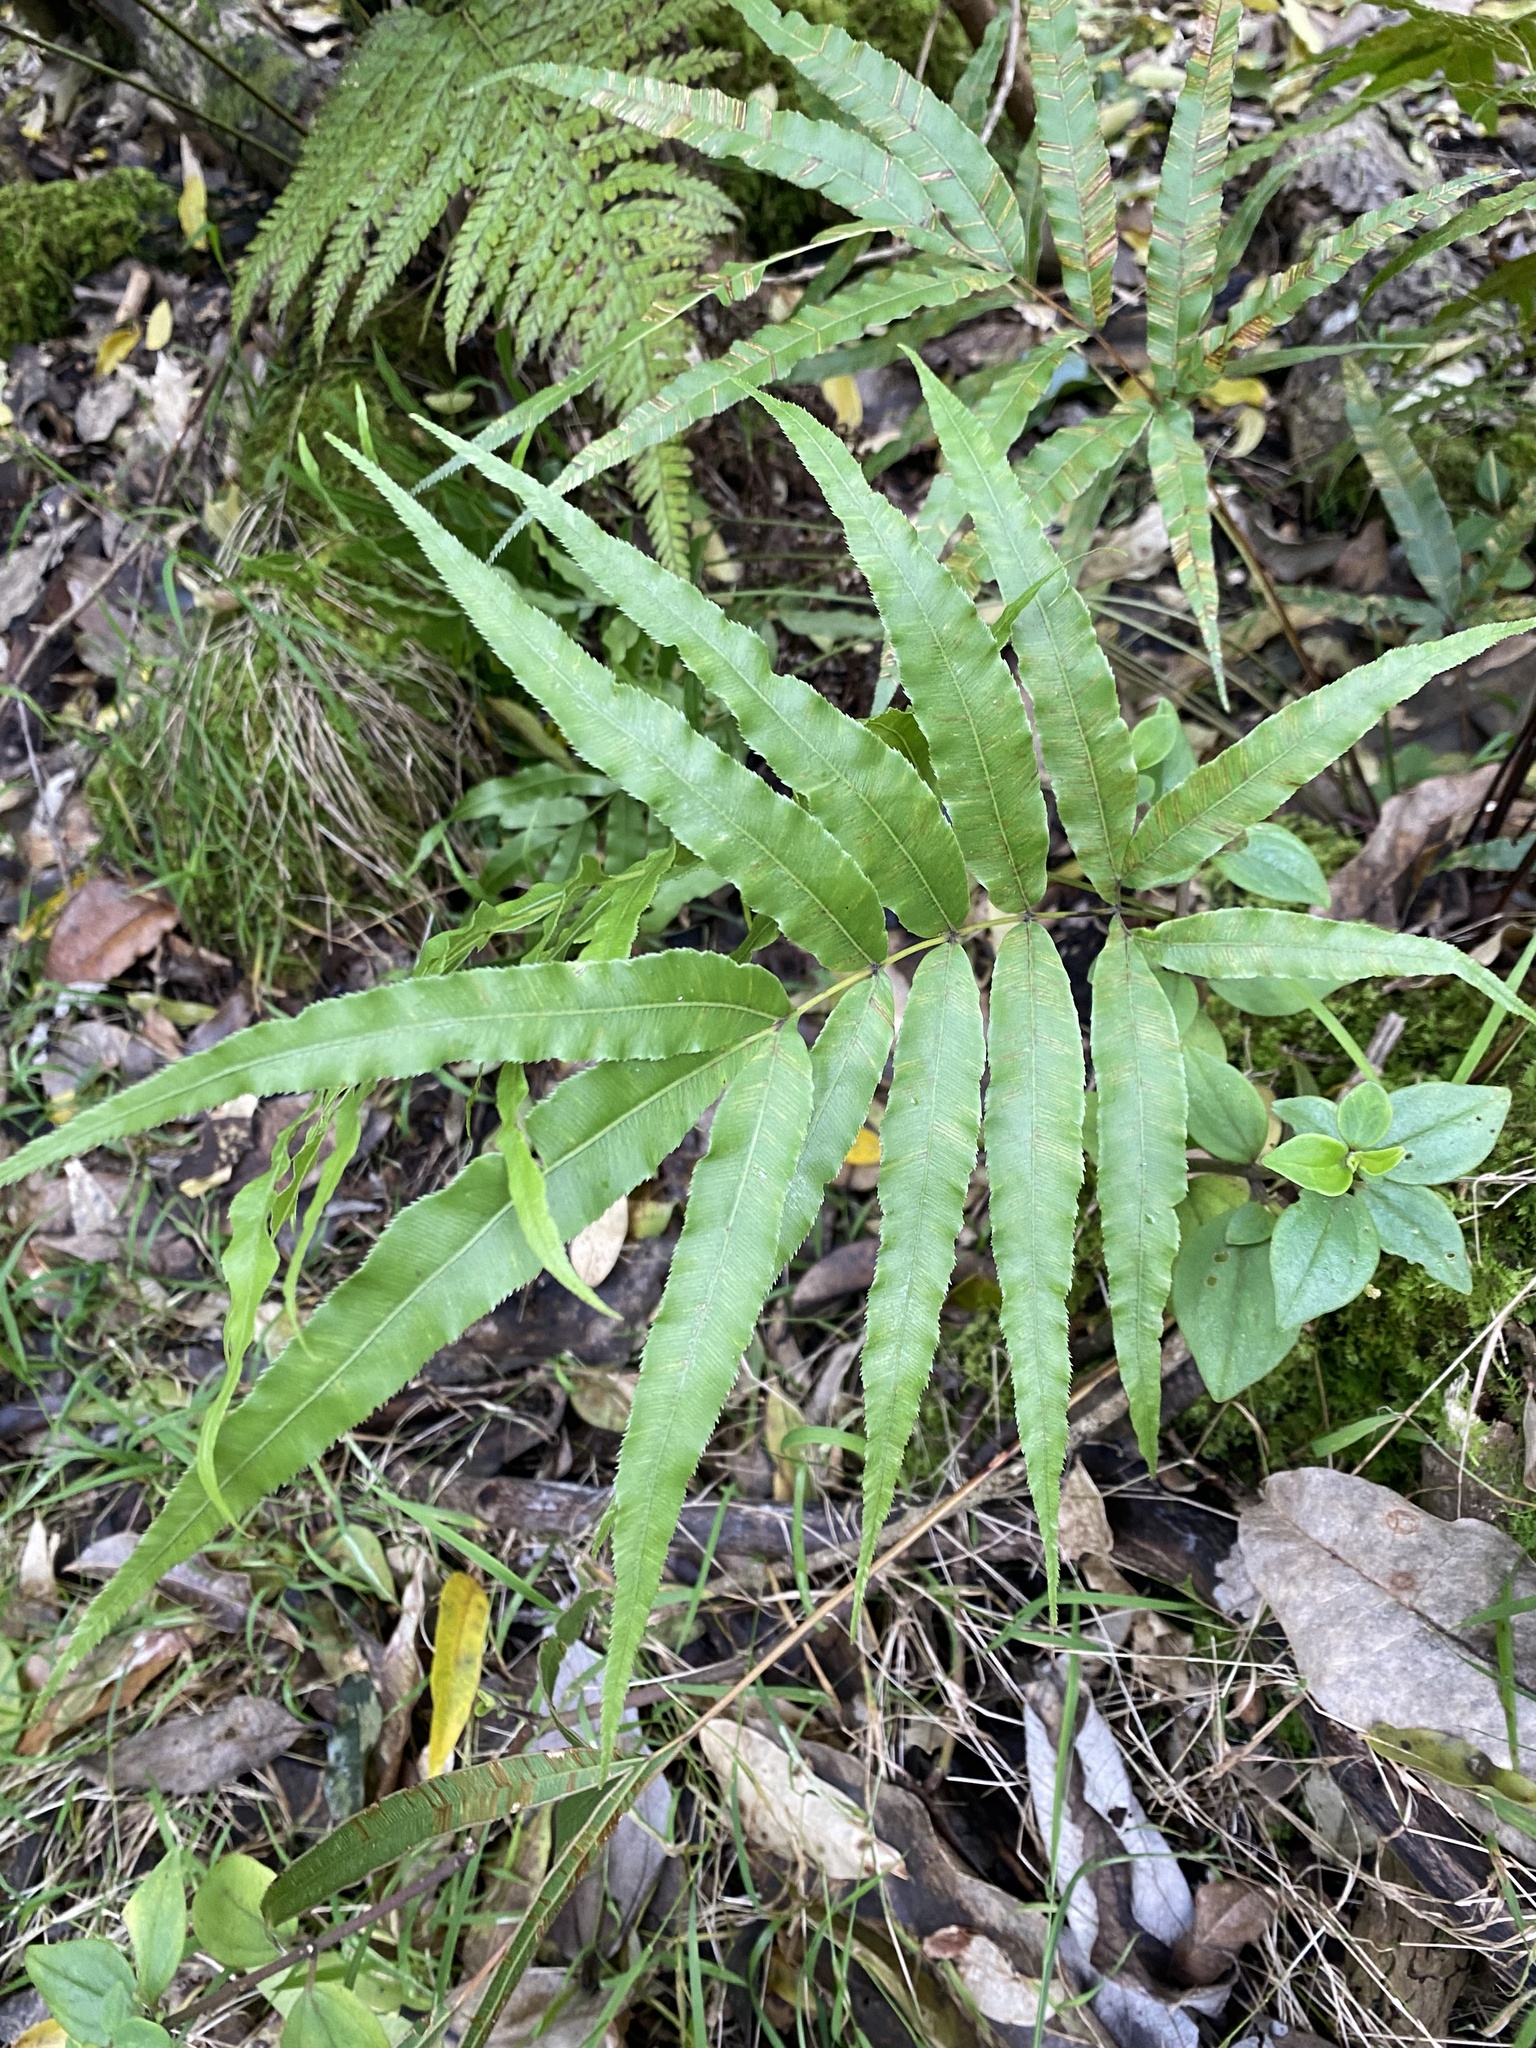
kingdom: Plantae
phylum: Tracheophyta
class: Polypodiopsida
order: Polypodiales
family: Pteridaceae
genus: Pteris
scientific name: Pteris cretica
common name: Ribbon fern
